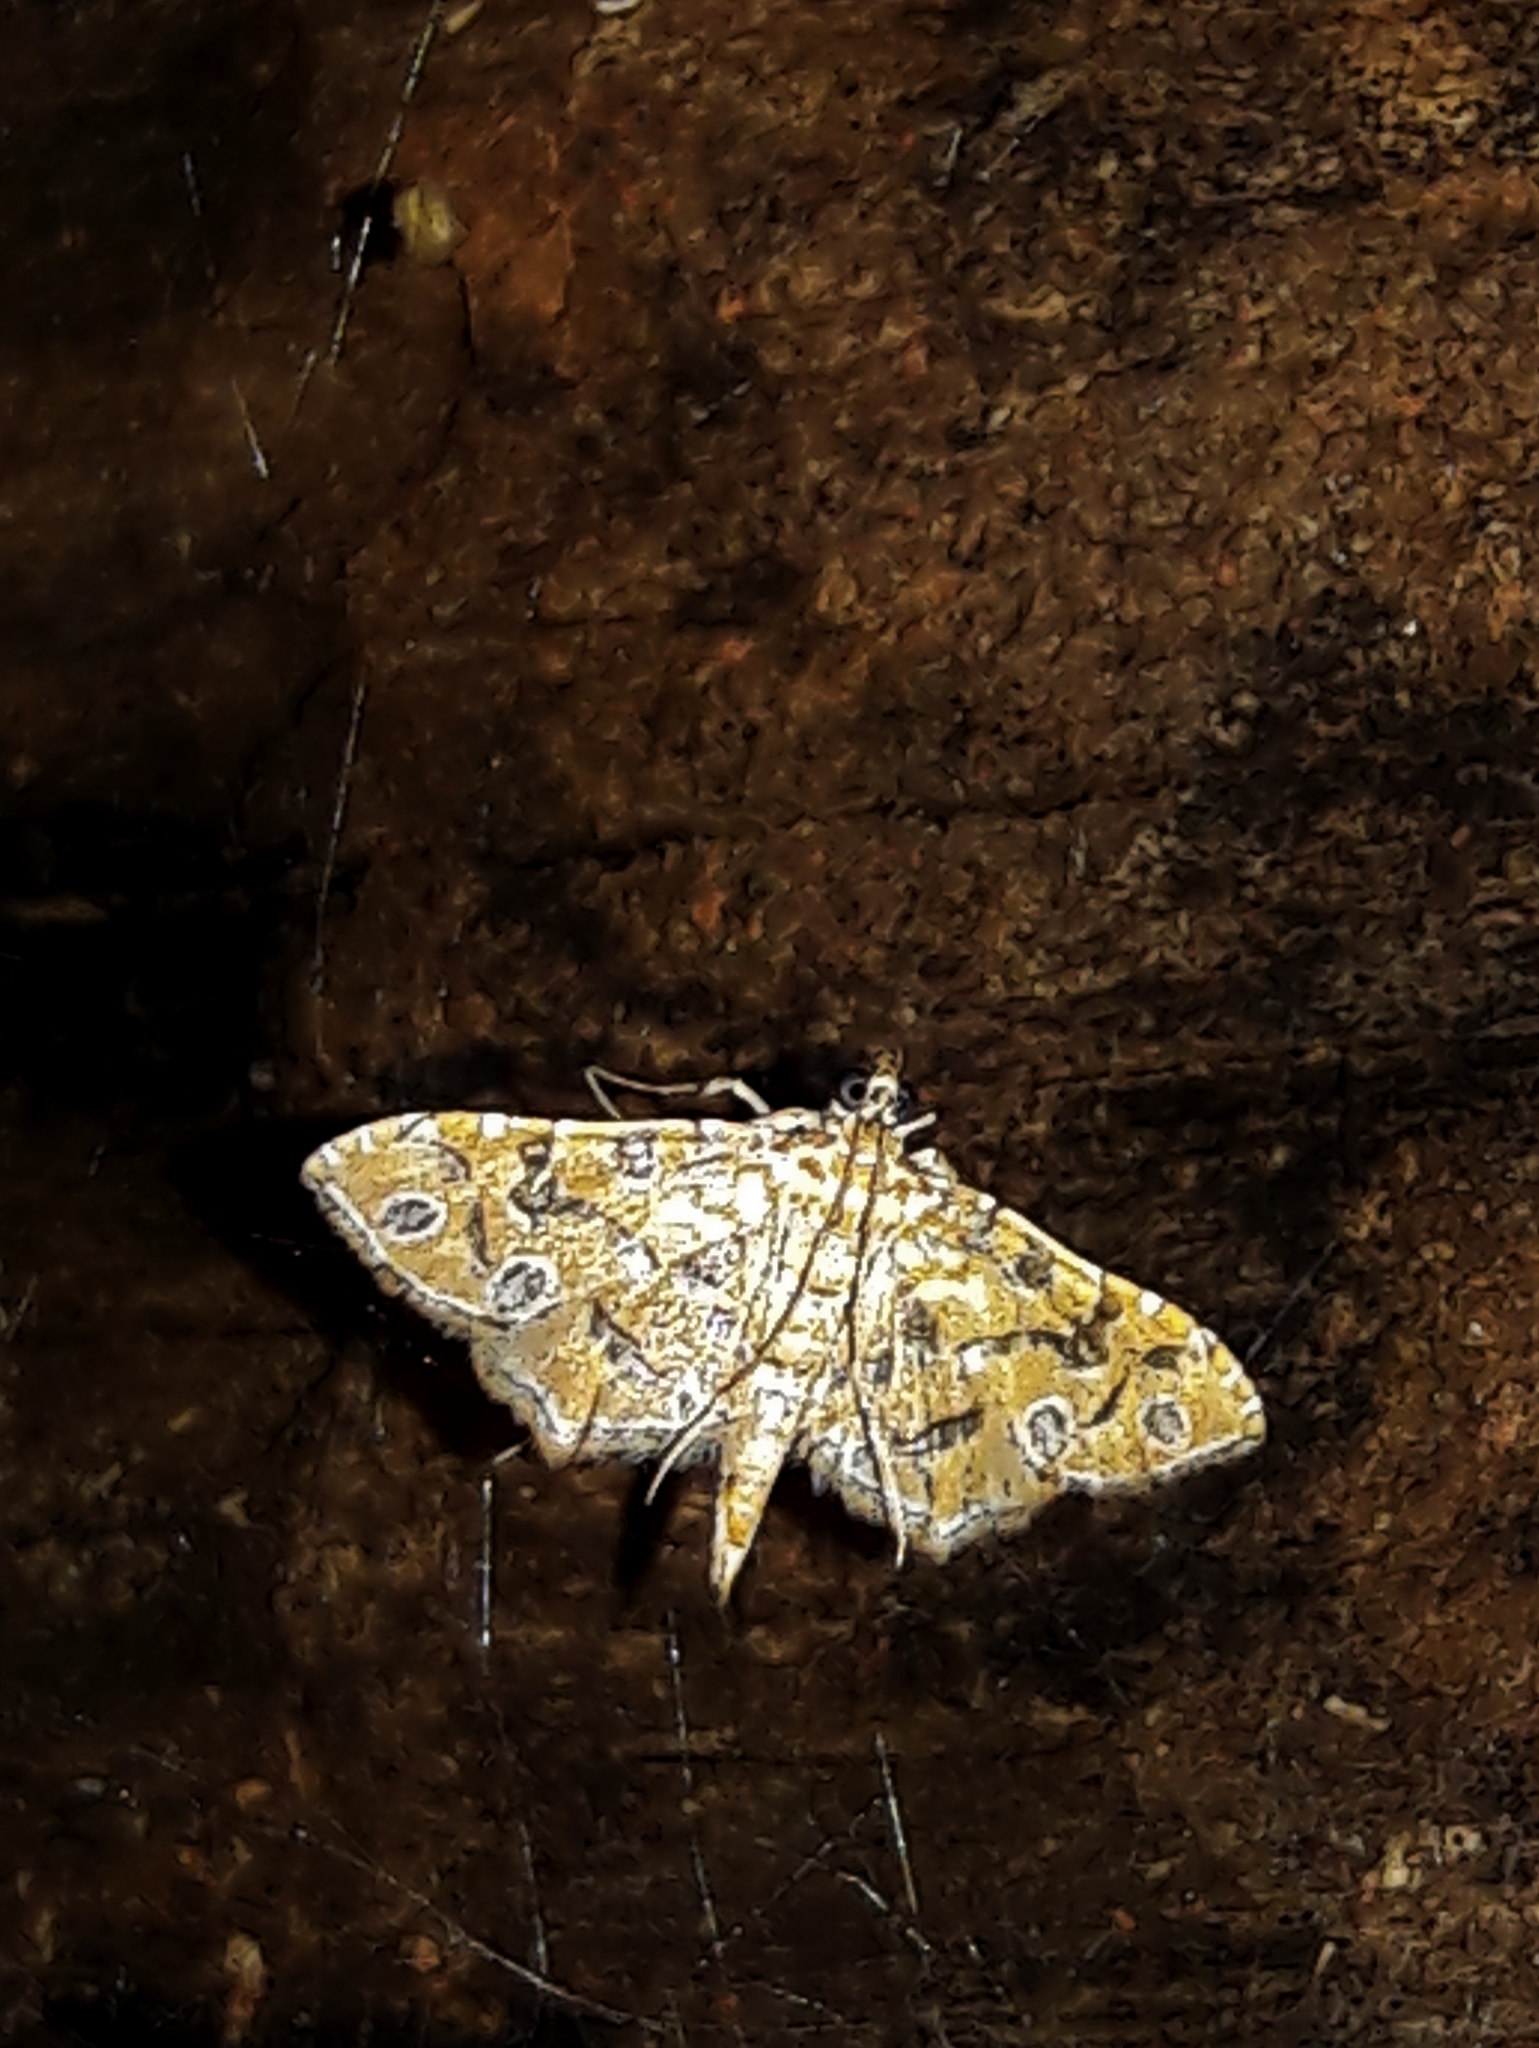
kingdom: Animalia
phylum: Arthropoda
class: Insecta
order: Lepidoptera
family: Crambidae
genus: Ommatospila
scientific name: Ommatospila narcaeusalis
